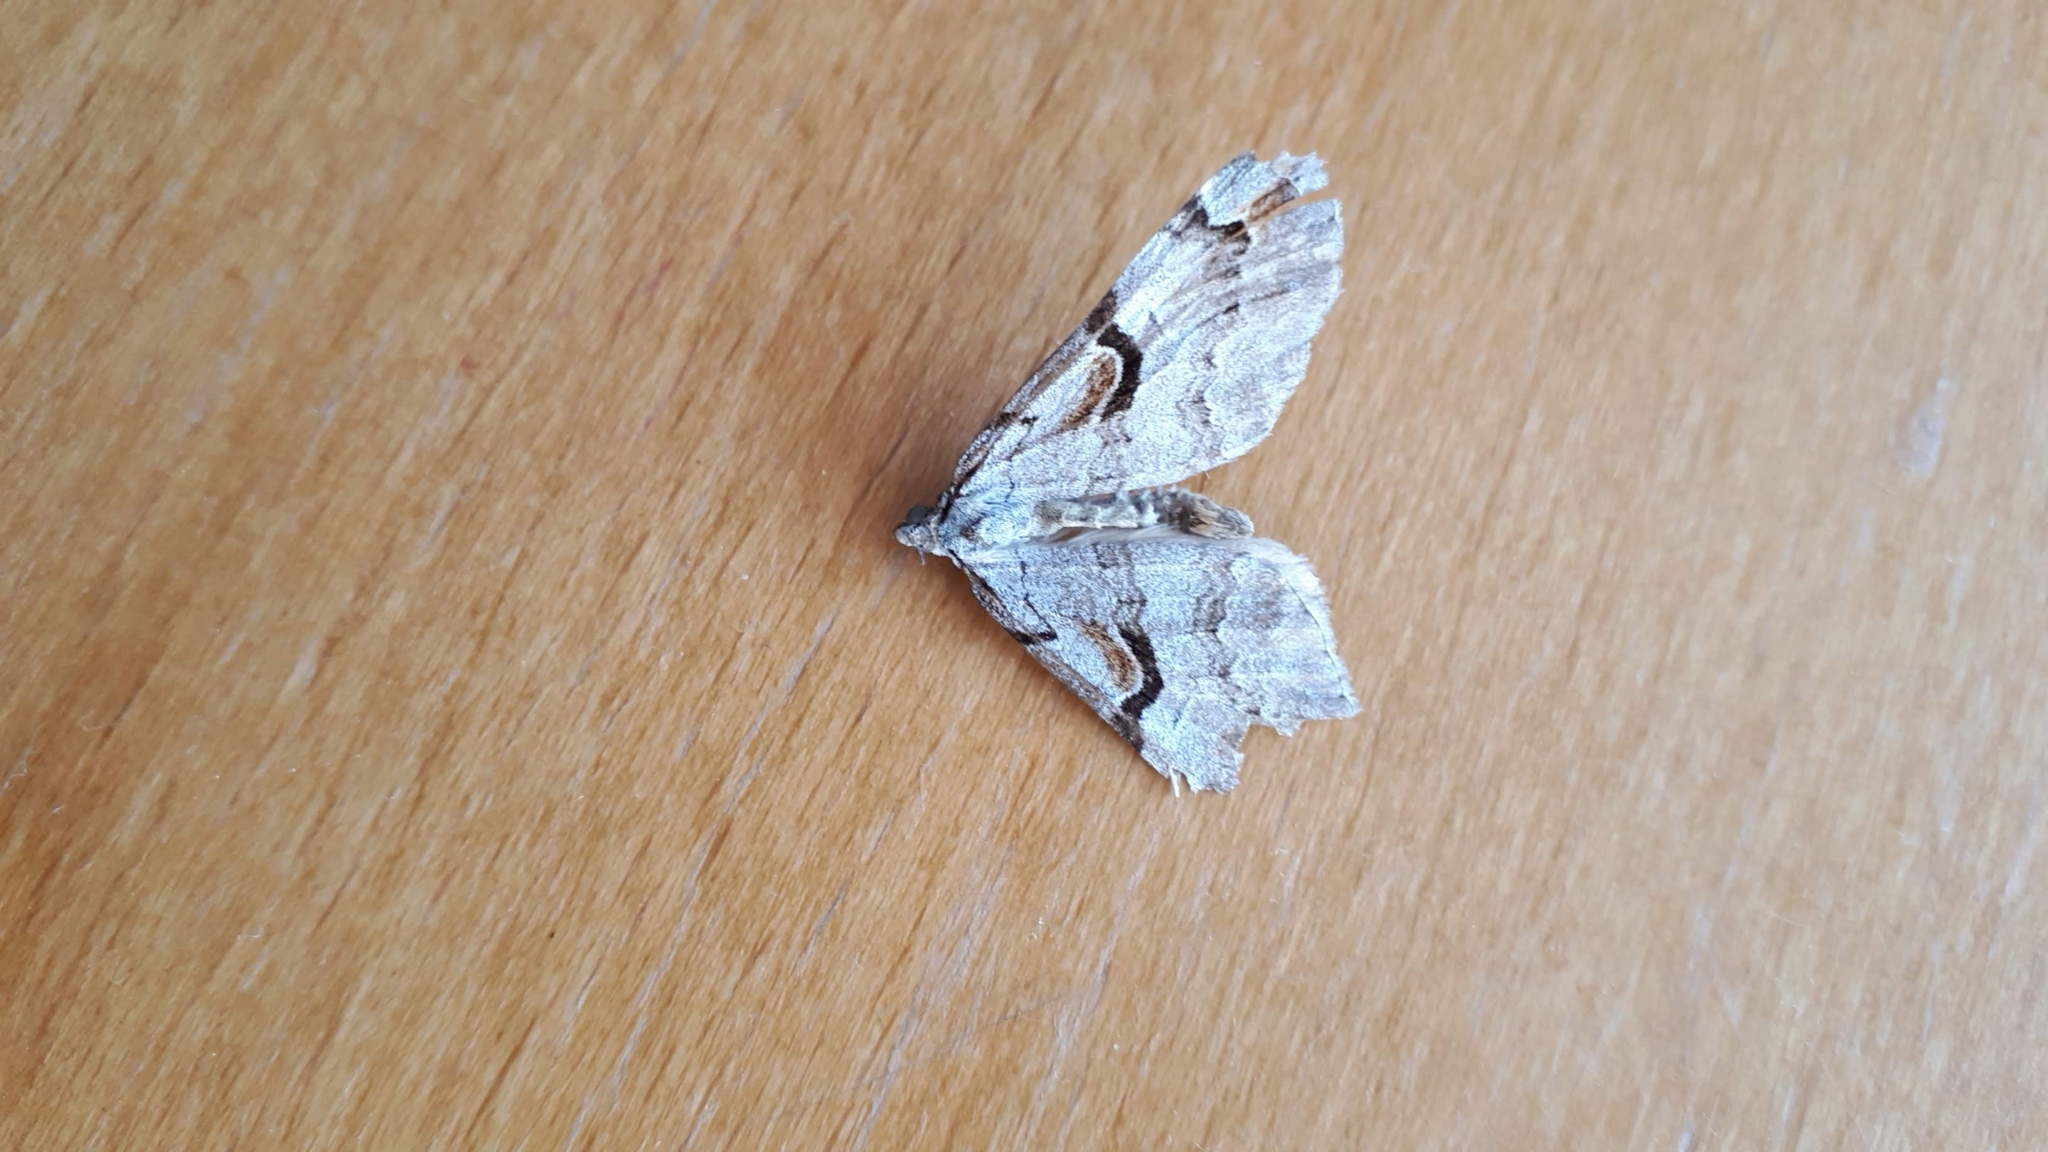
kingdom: Animalia
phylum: Arthropoda
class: Insecta
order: Lepidoptera
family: Geometridae
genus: Aplocera
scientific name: Aplocera praeformata
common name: Purple treble-bar
